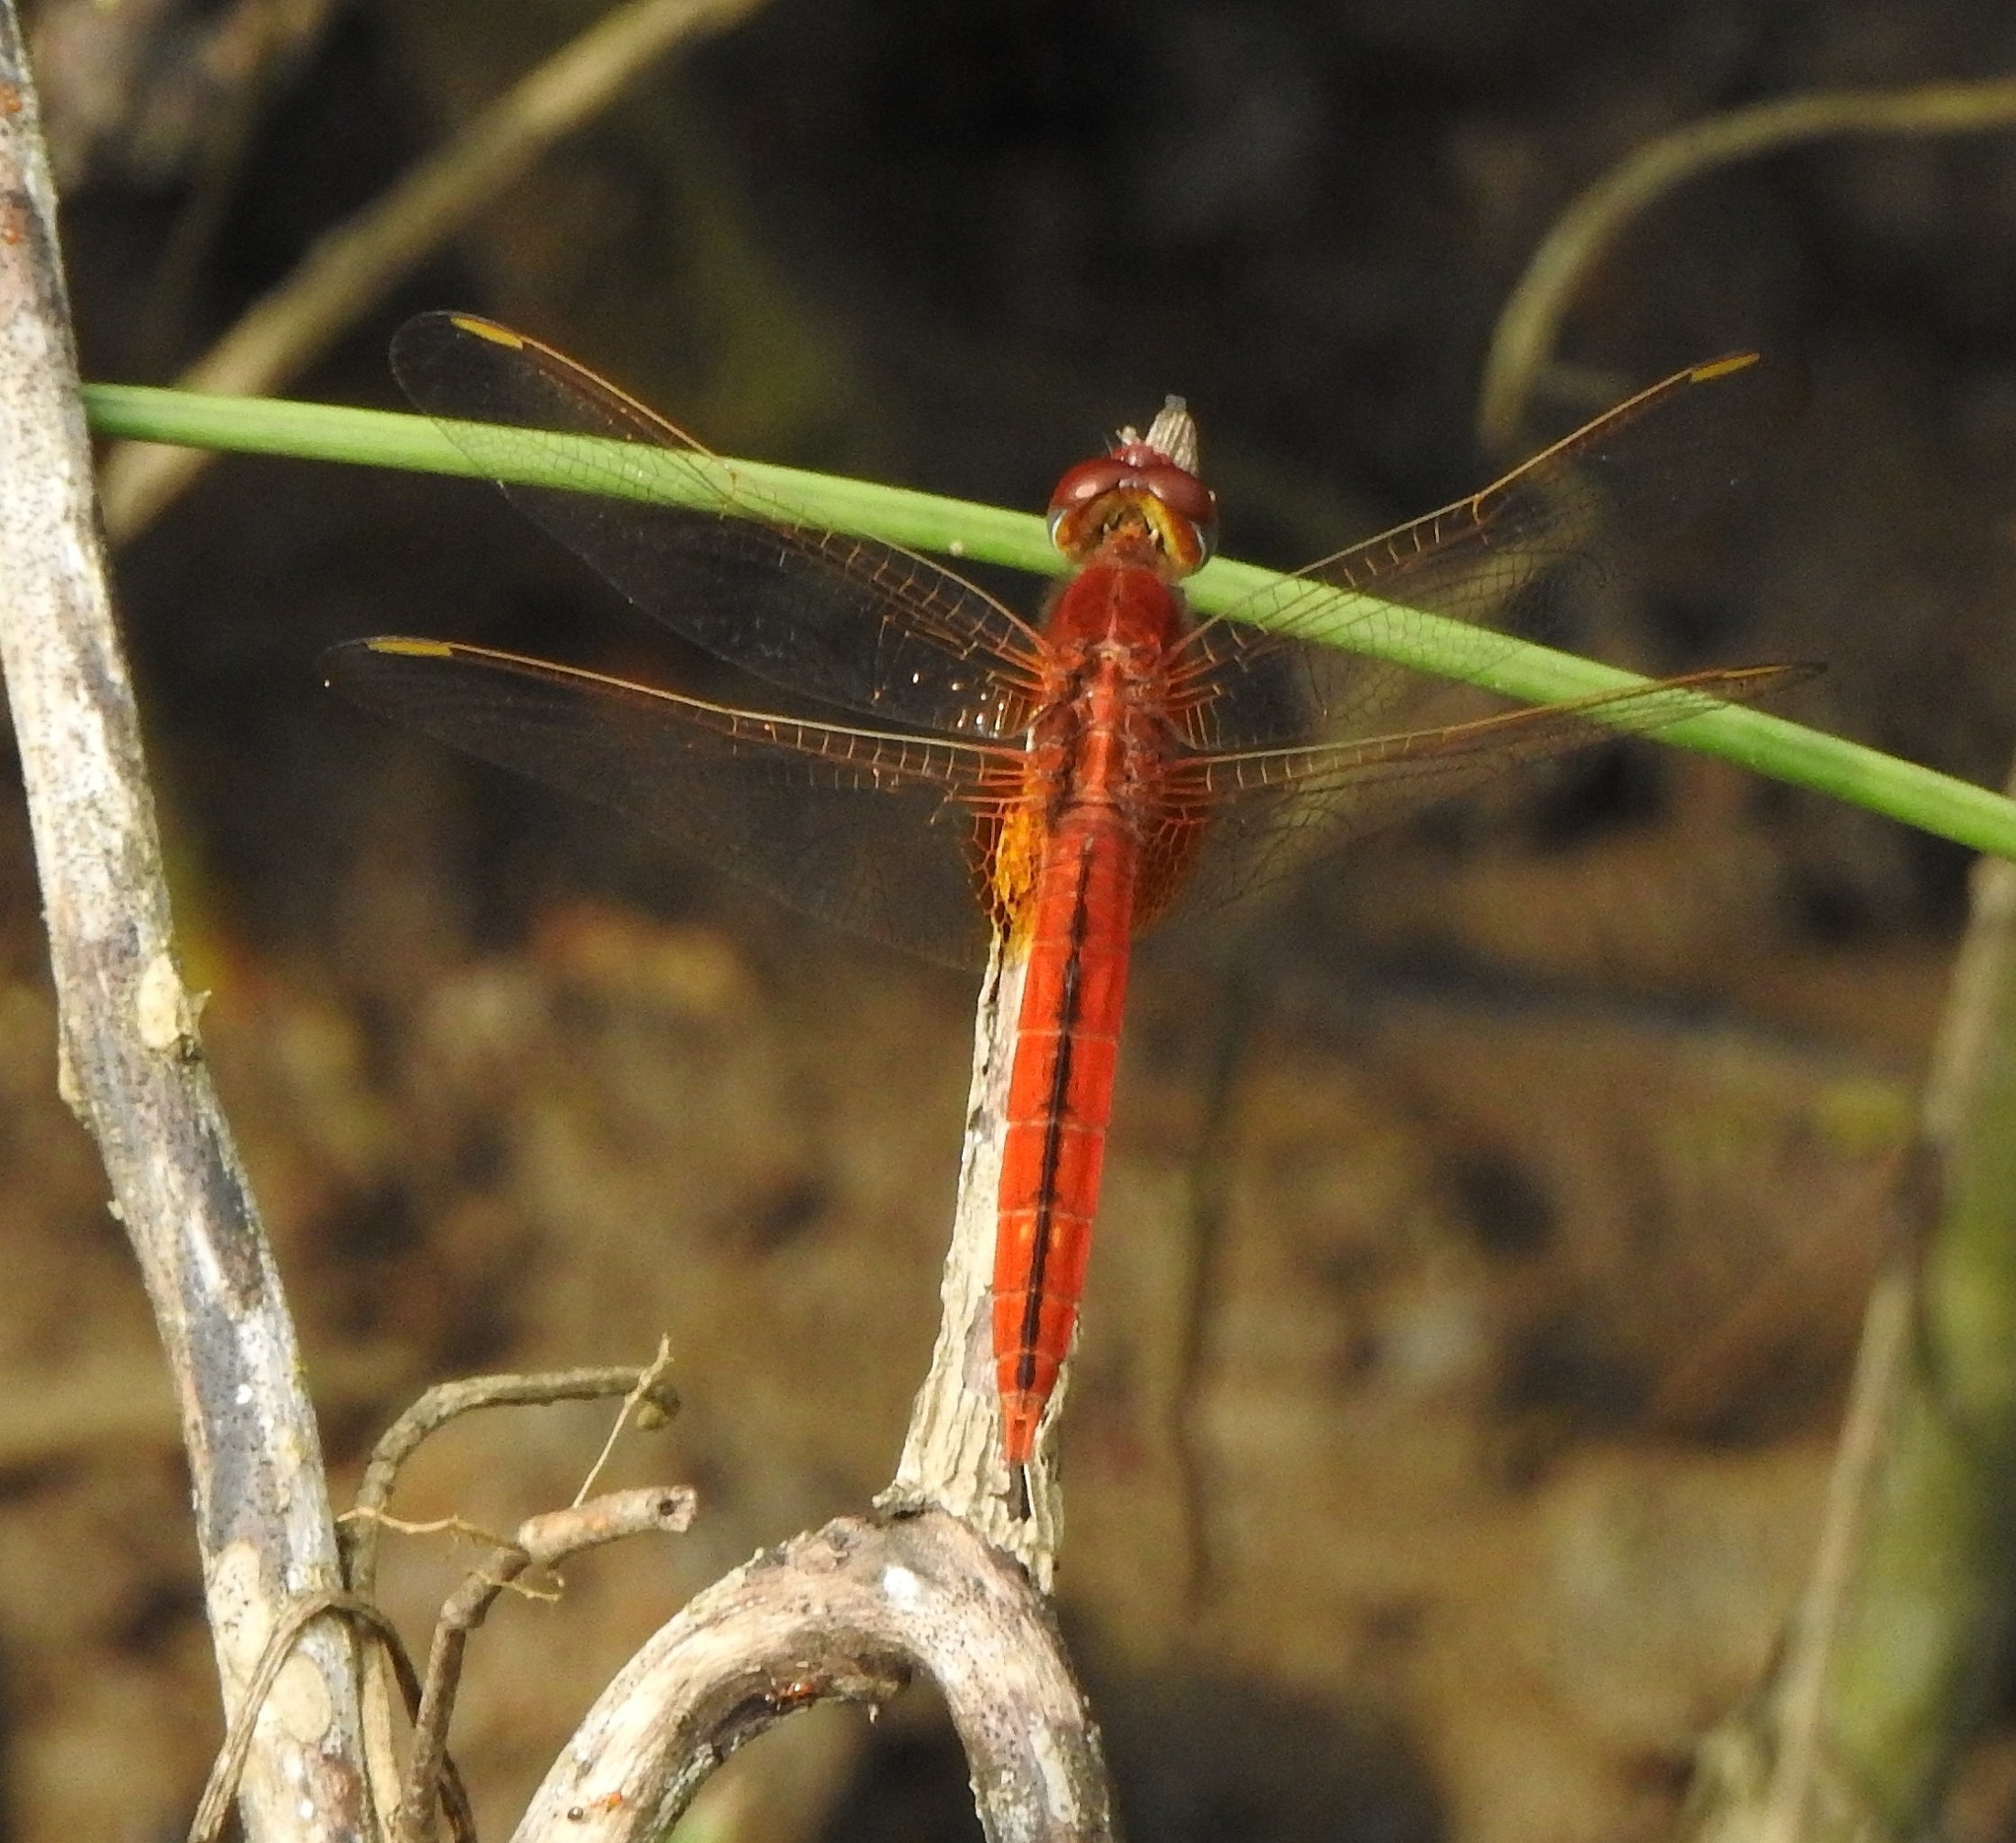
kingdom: Animalia
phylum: Arthropoda
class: Insecta
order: Odonata
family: Libellulidae
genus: Crocothemis
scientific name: Crocothemis servilia
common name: Scarlet skimmer
